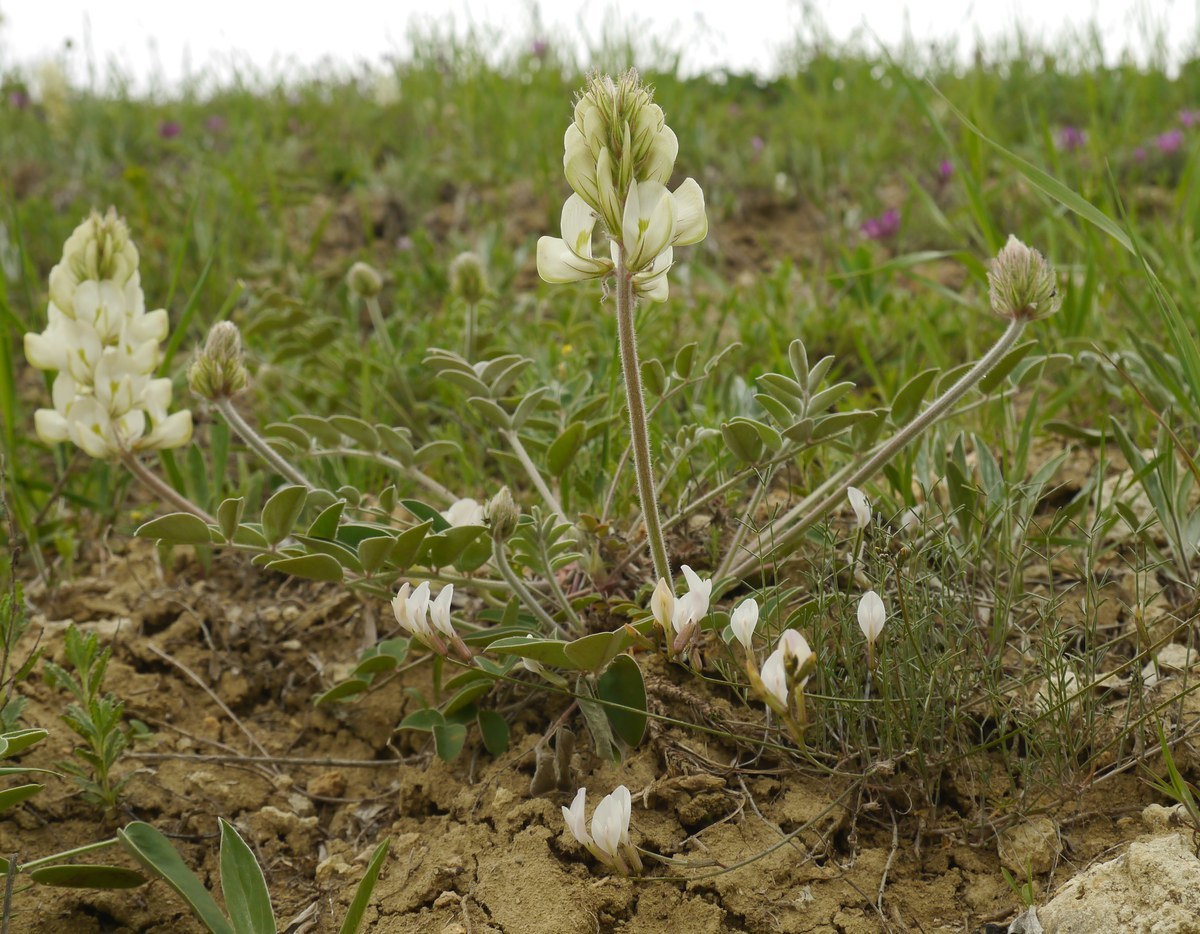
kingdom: Plantae
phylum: Tracheophyta
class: Magnoliopsida
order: Fabales
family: Fabaceae
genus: Hedysarum
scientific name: Hedysarum grandiflorum
